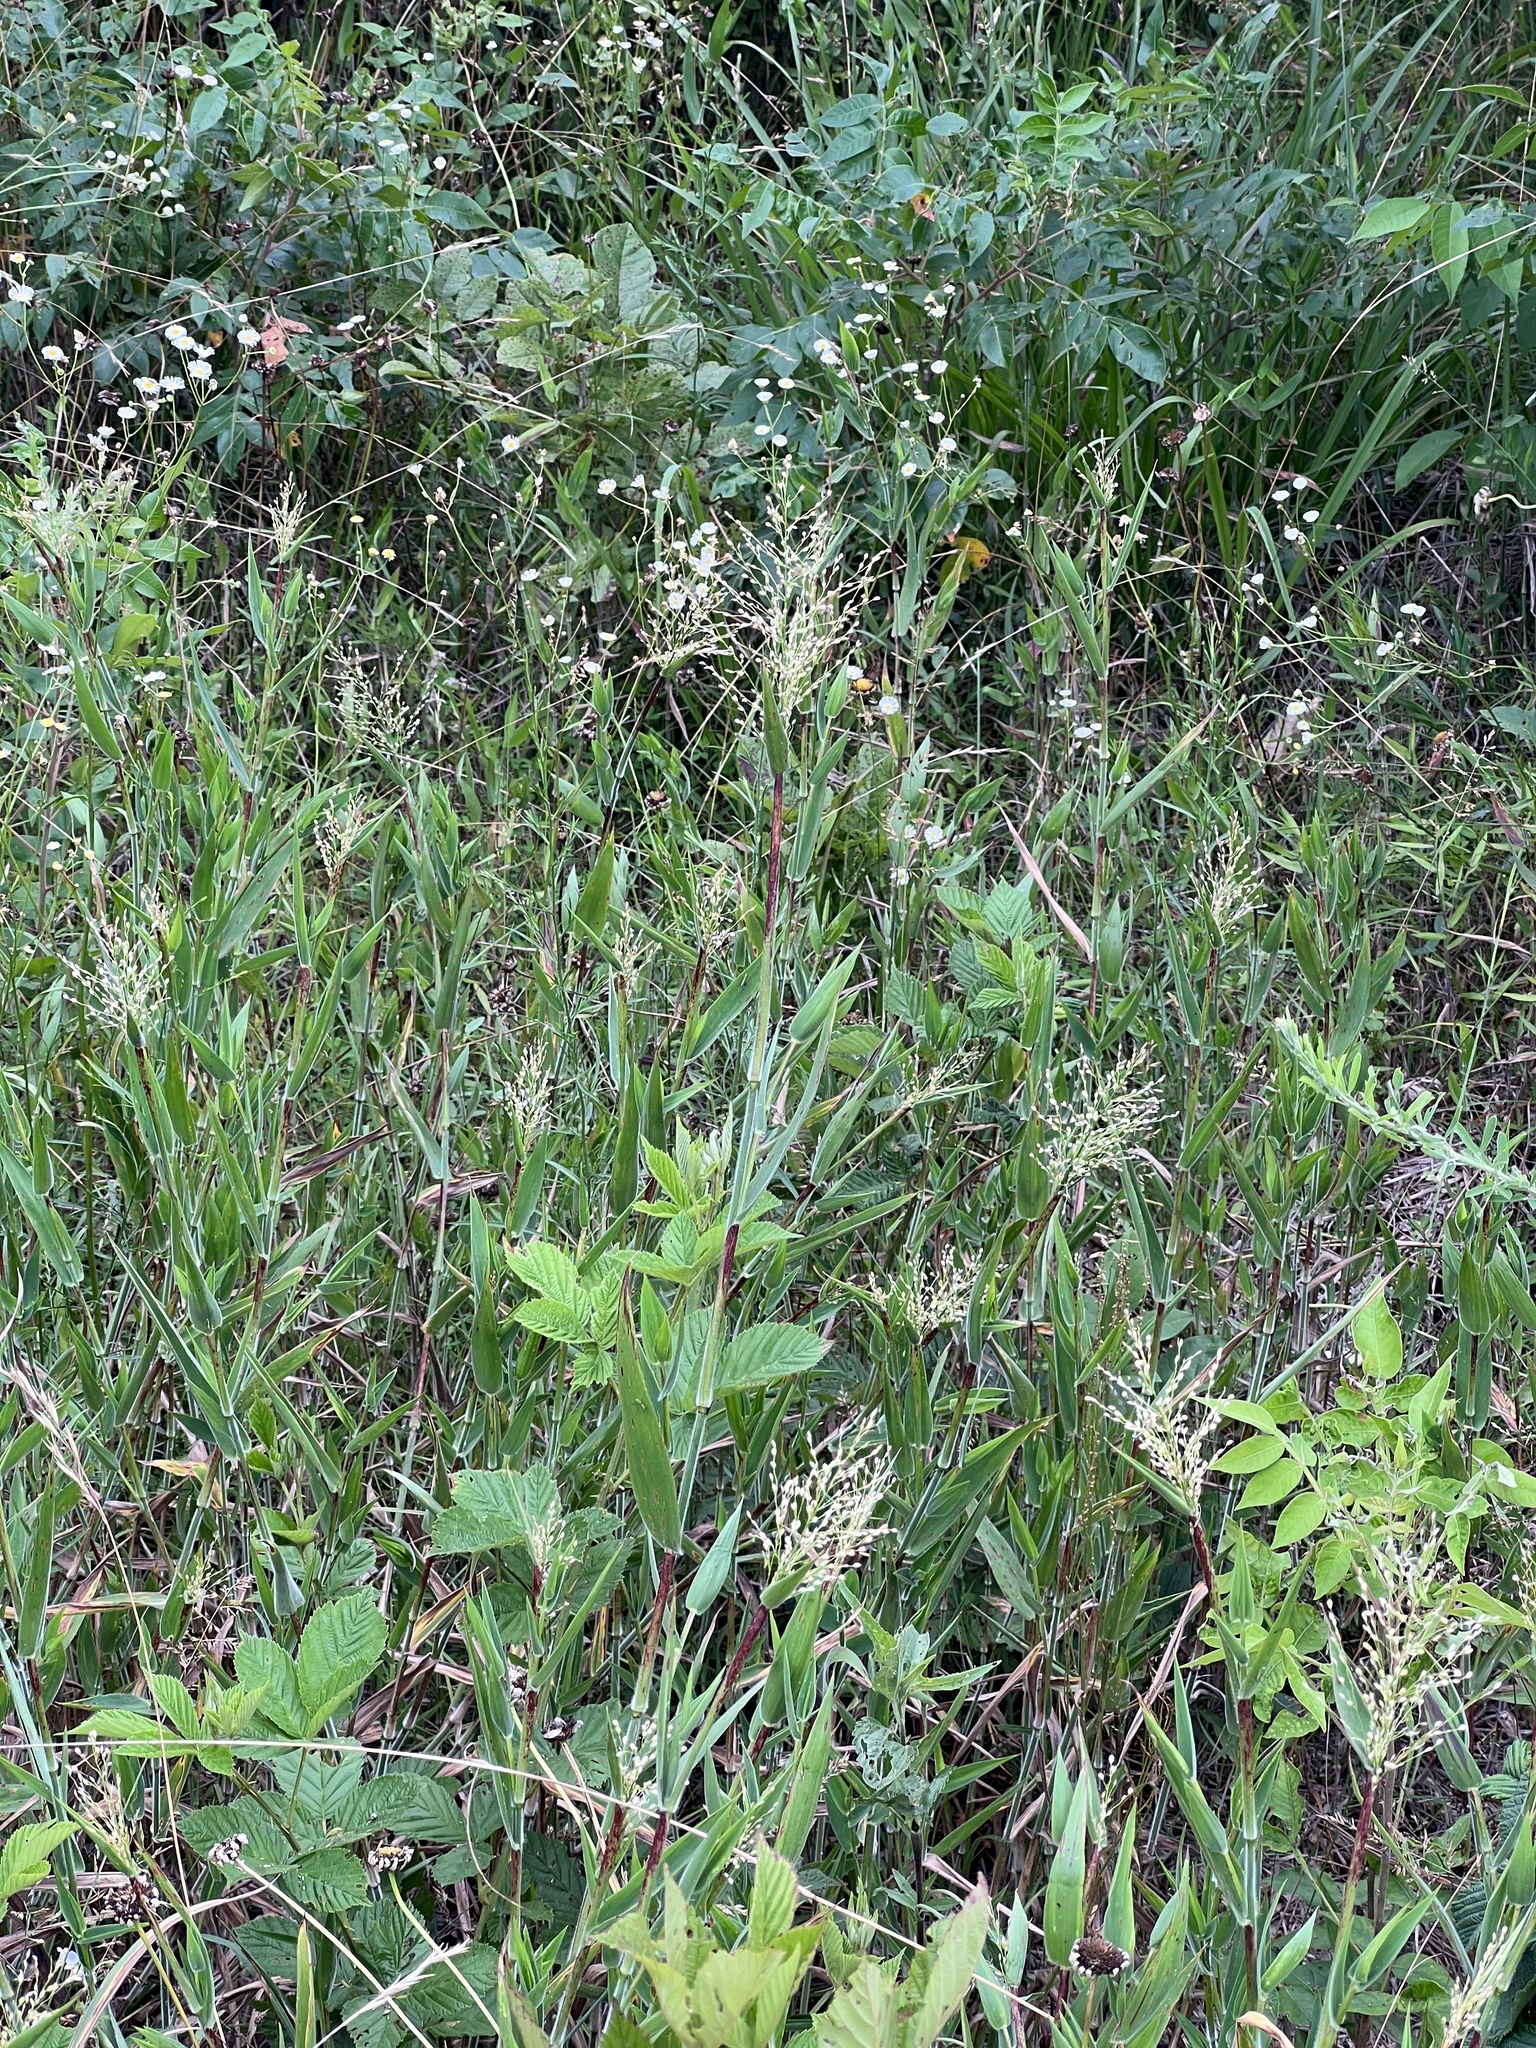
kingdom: Plantae
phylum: Tracheophyta
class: Liliopsida
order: Poales
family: Poaceae
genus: Dichanthelium
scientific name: Dichanthelium scoparium
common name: Velvety panic grass
